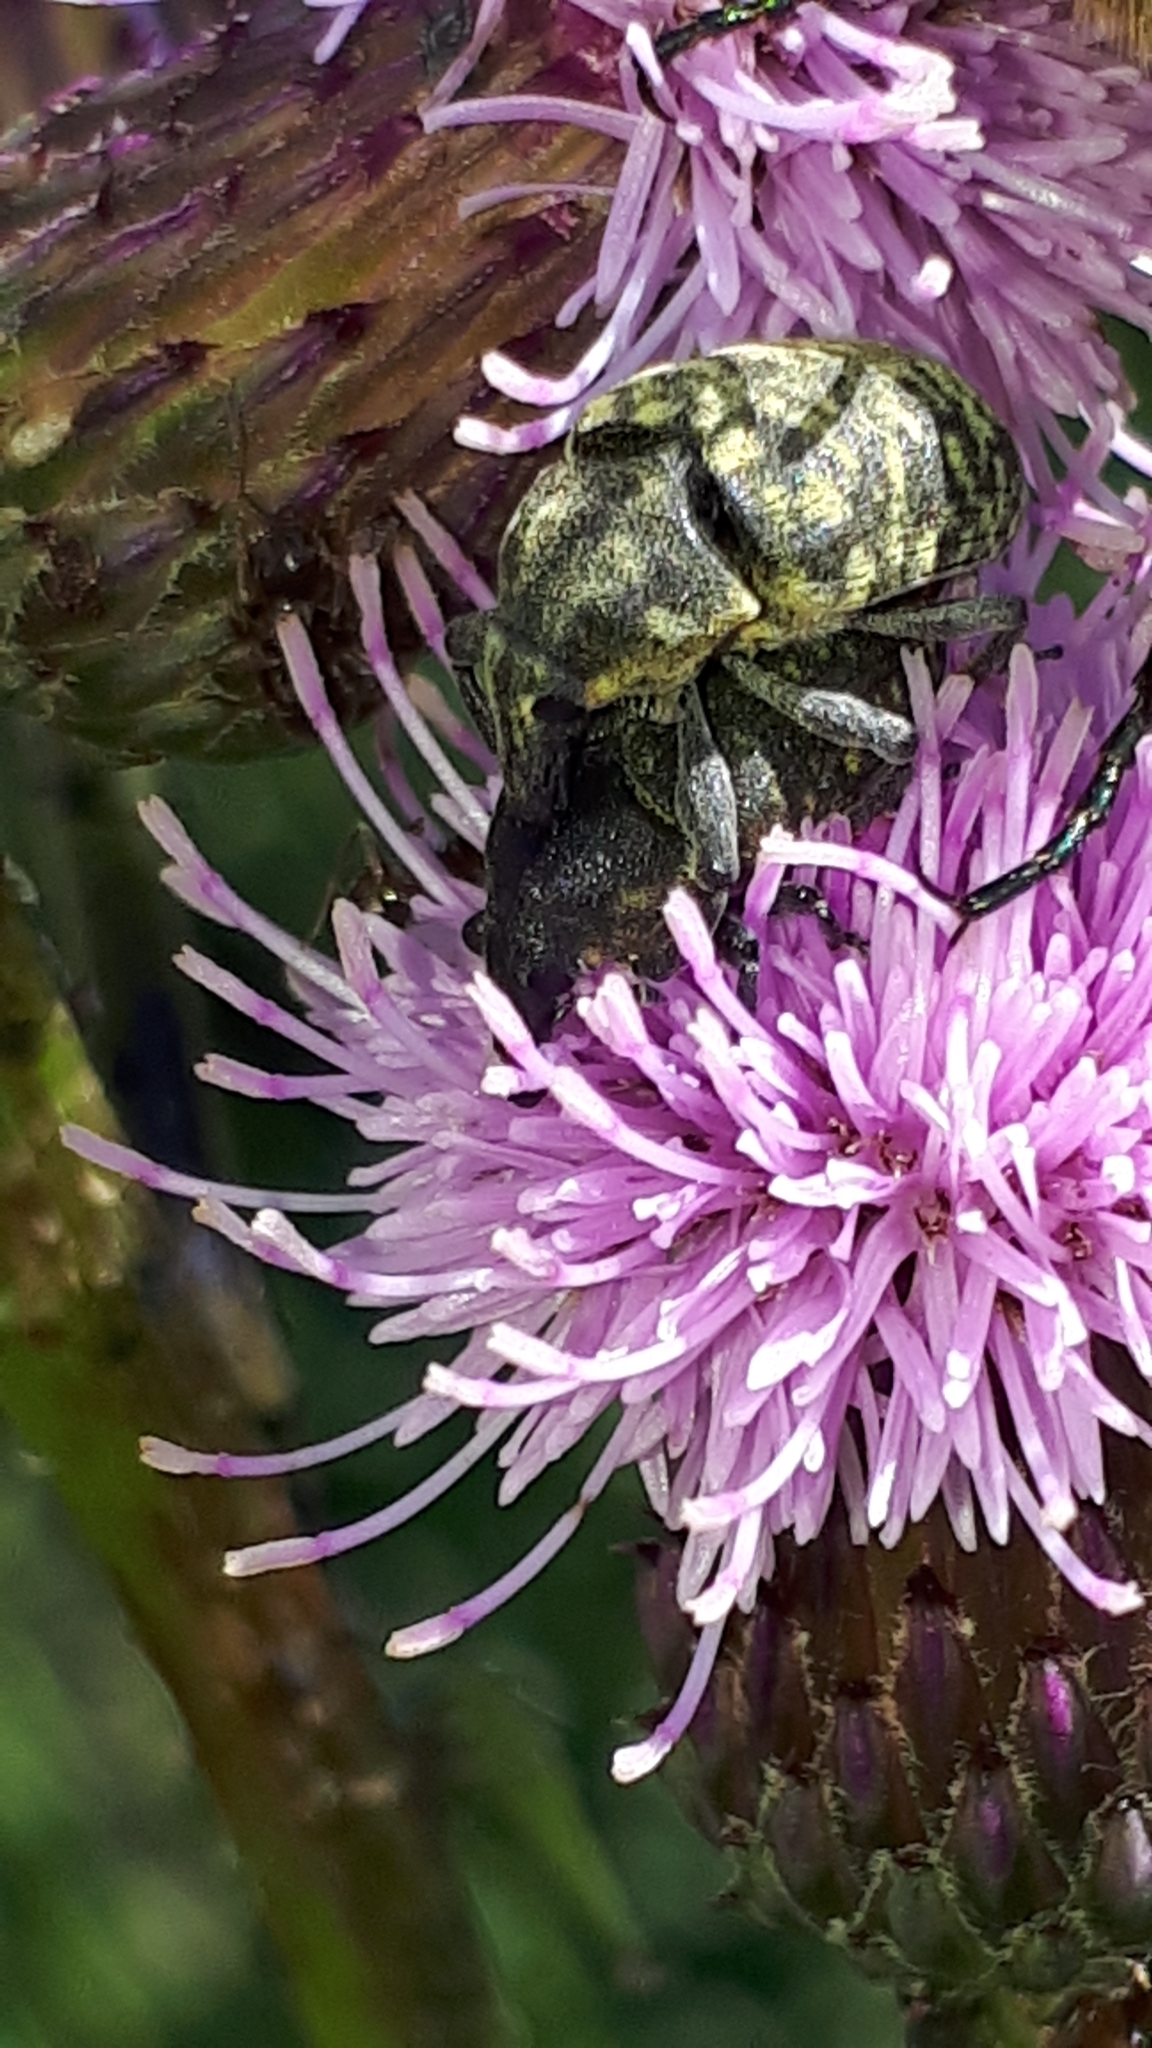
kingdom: Animalia
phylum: Arthropoda
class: Insecta
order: Coleoptera
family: Curculionidae
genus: Larinus
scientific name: Larinus turbinatus
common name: Weevil
